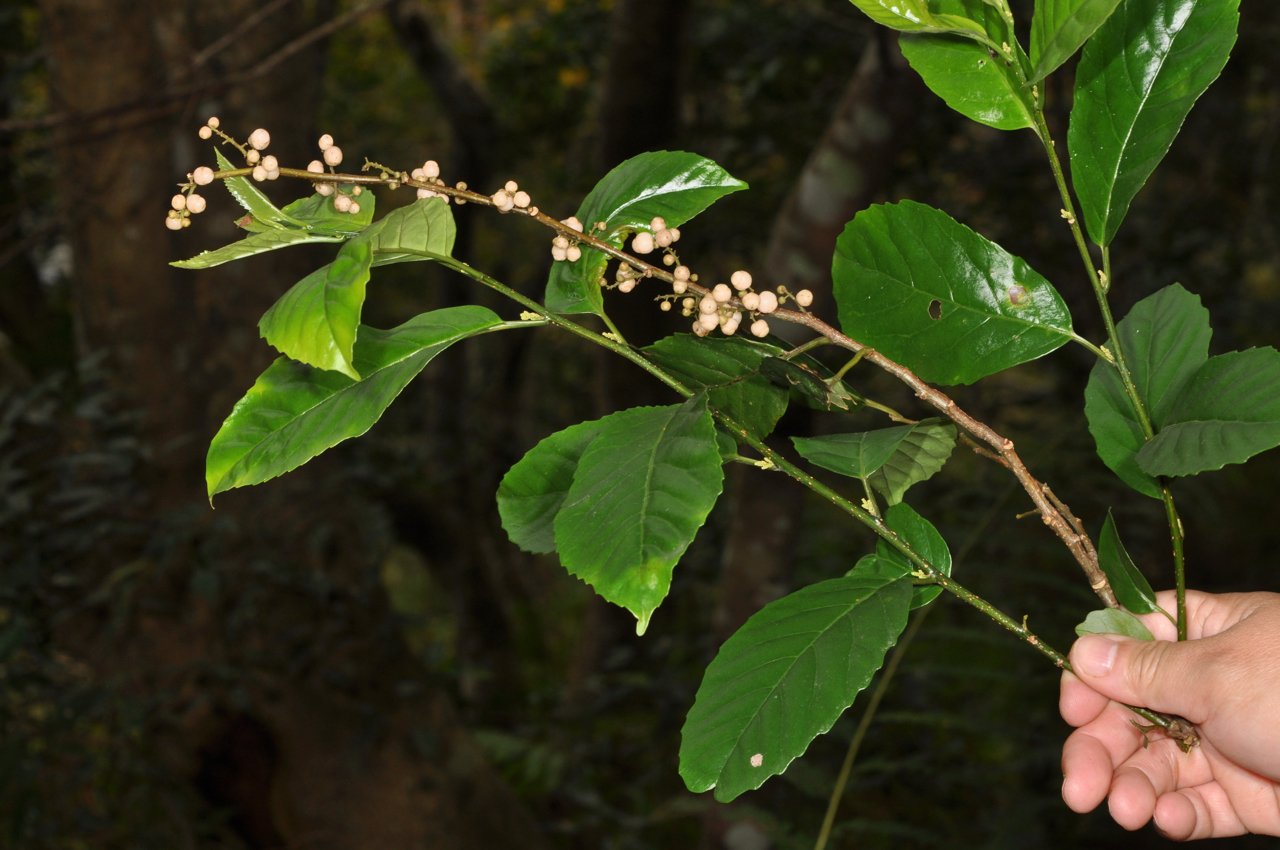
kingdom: Plantae
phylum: Tracheophyta
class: Magnoliopsida
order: Ericales
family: Primulaceae
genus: Maesa
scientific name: Maesa perlaria
